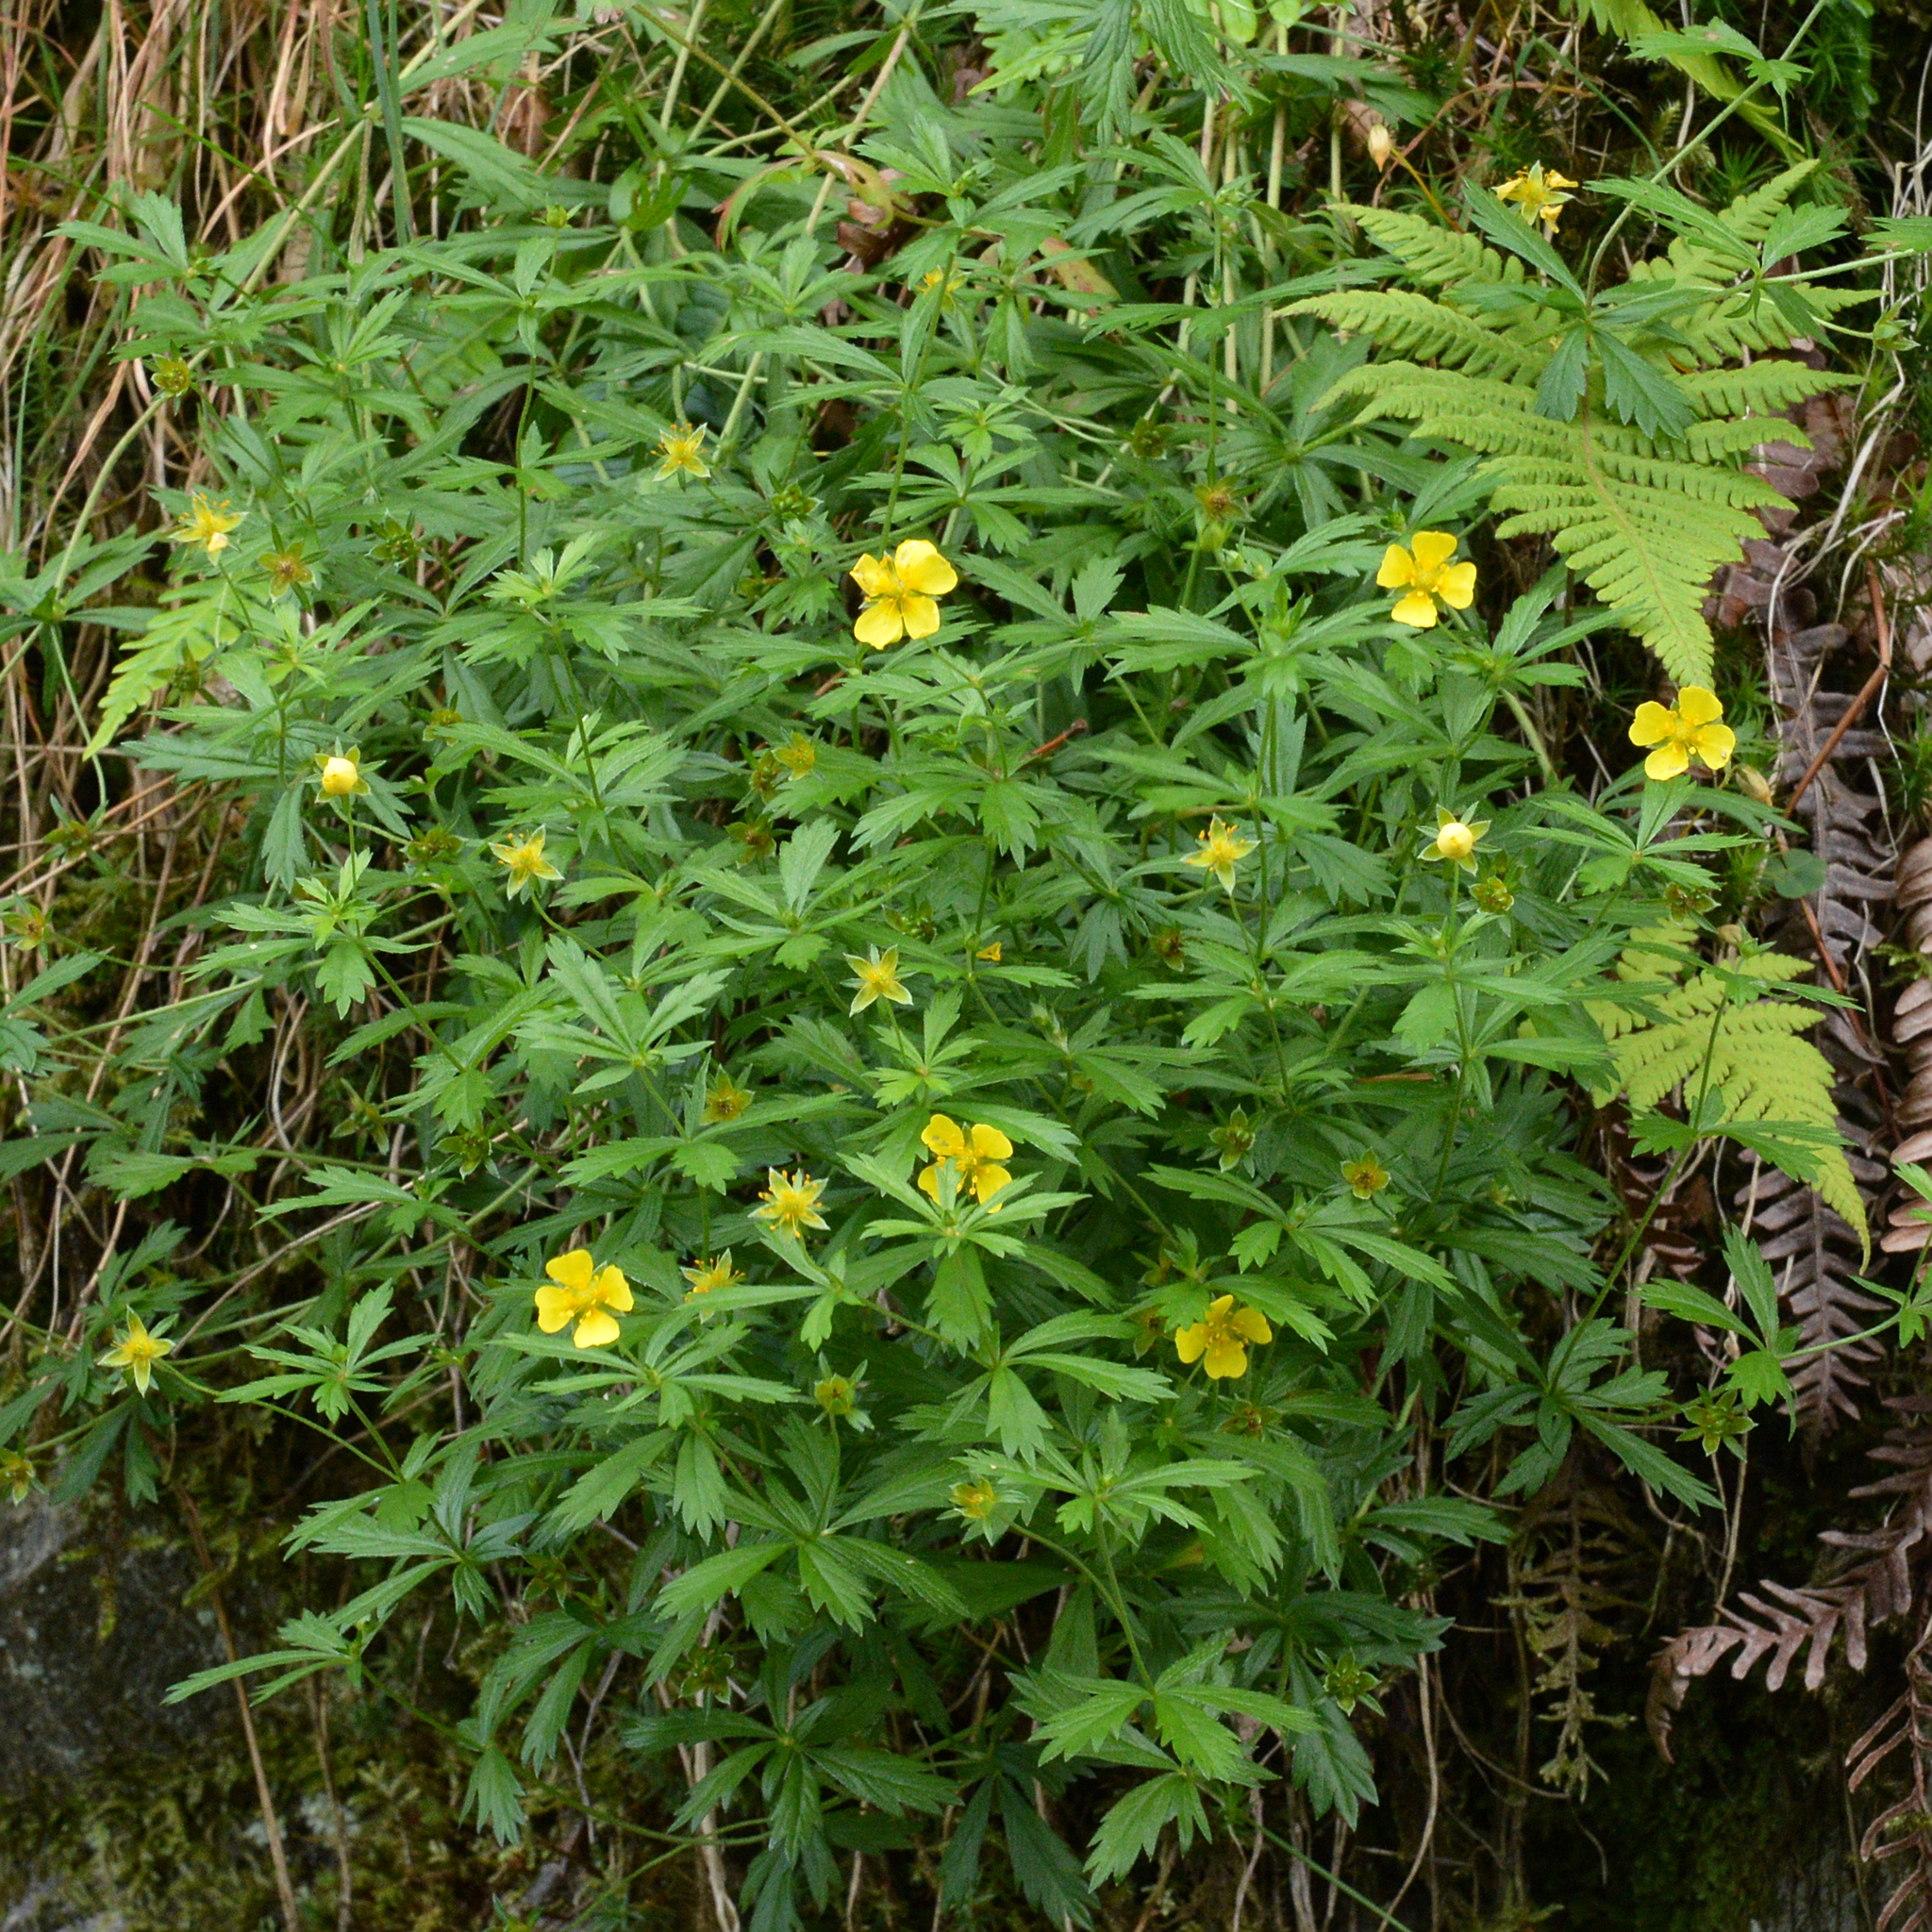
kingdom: Plantae
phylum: Tracheophyta
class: Magnoliopsida
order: Rosales
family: Rosaceae
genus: Potentilla
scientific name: Potentilla erecta
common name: Tormentil
